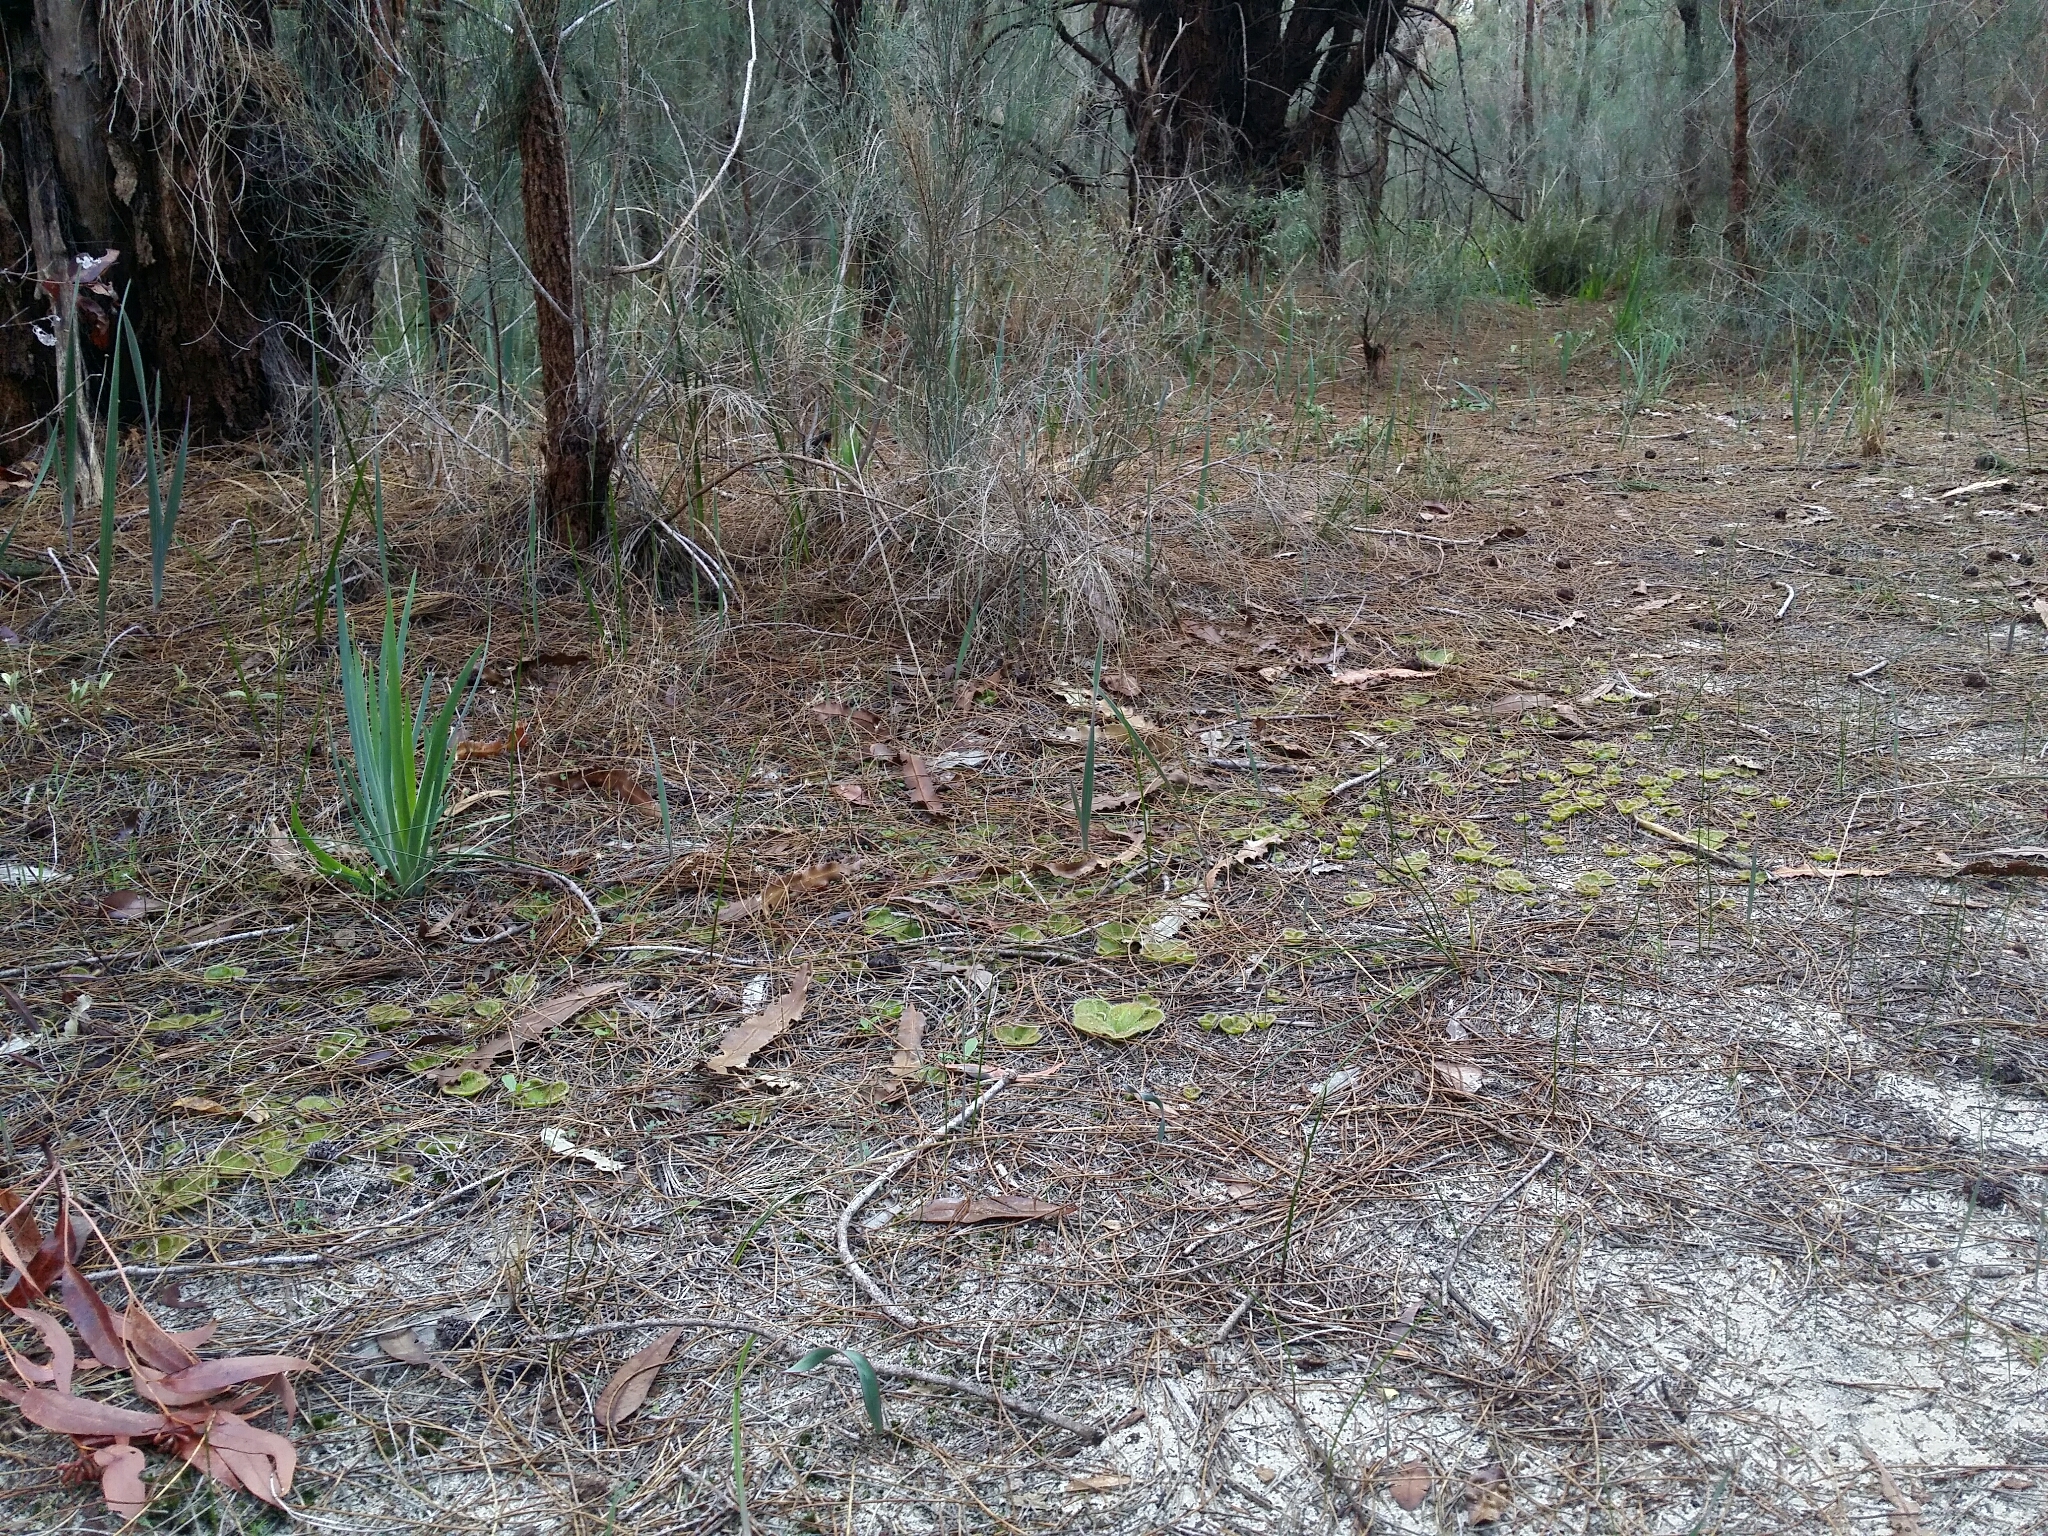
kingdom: Plantae
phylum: Tracheophyta
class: Magnoliopsida
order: Caryophyllales
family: Droseraceae
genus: Drosera
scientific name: Drosera erythrorhiza
